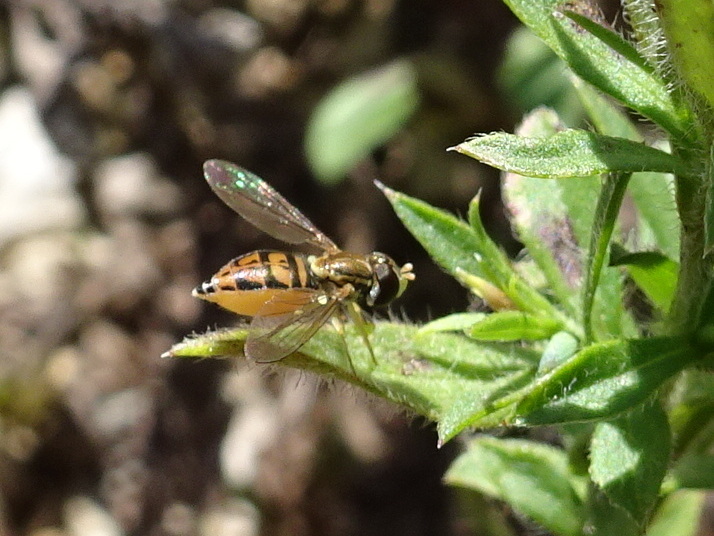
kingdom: Animalia
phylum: Arthropoda
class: Insecta
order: Diptera
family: Syrphidae
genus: Toxomerus
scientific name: Toxomerus marginatus
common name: Syrphid fly
